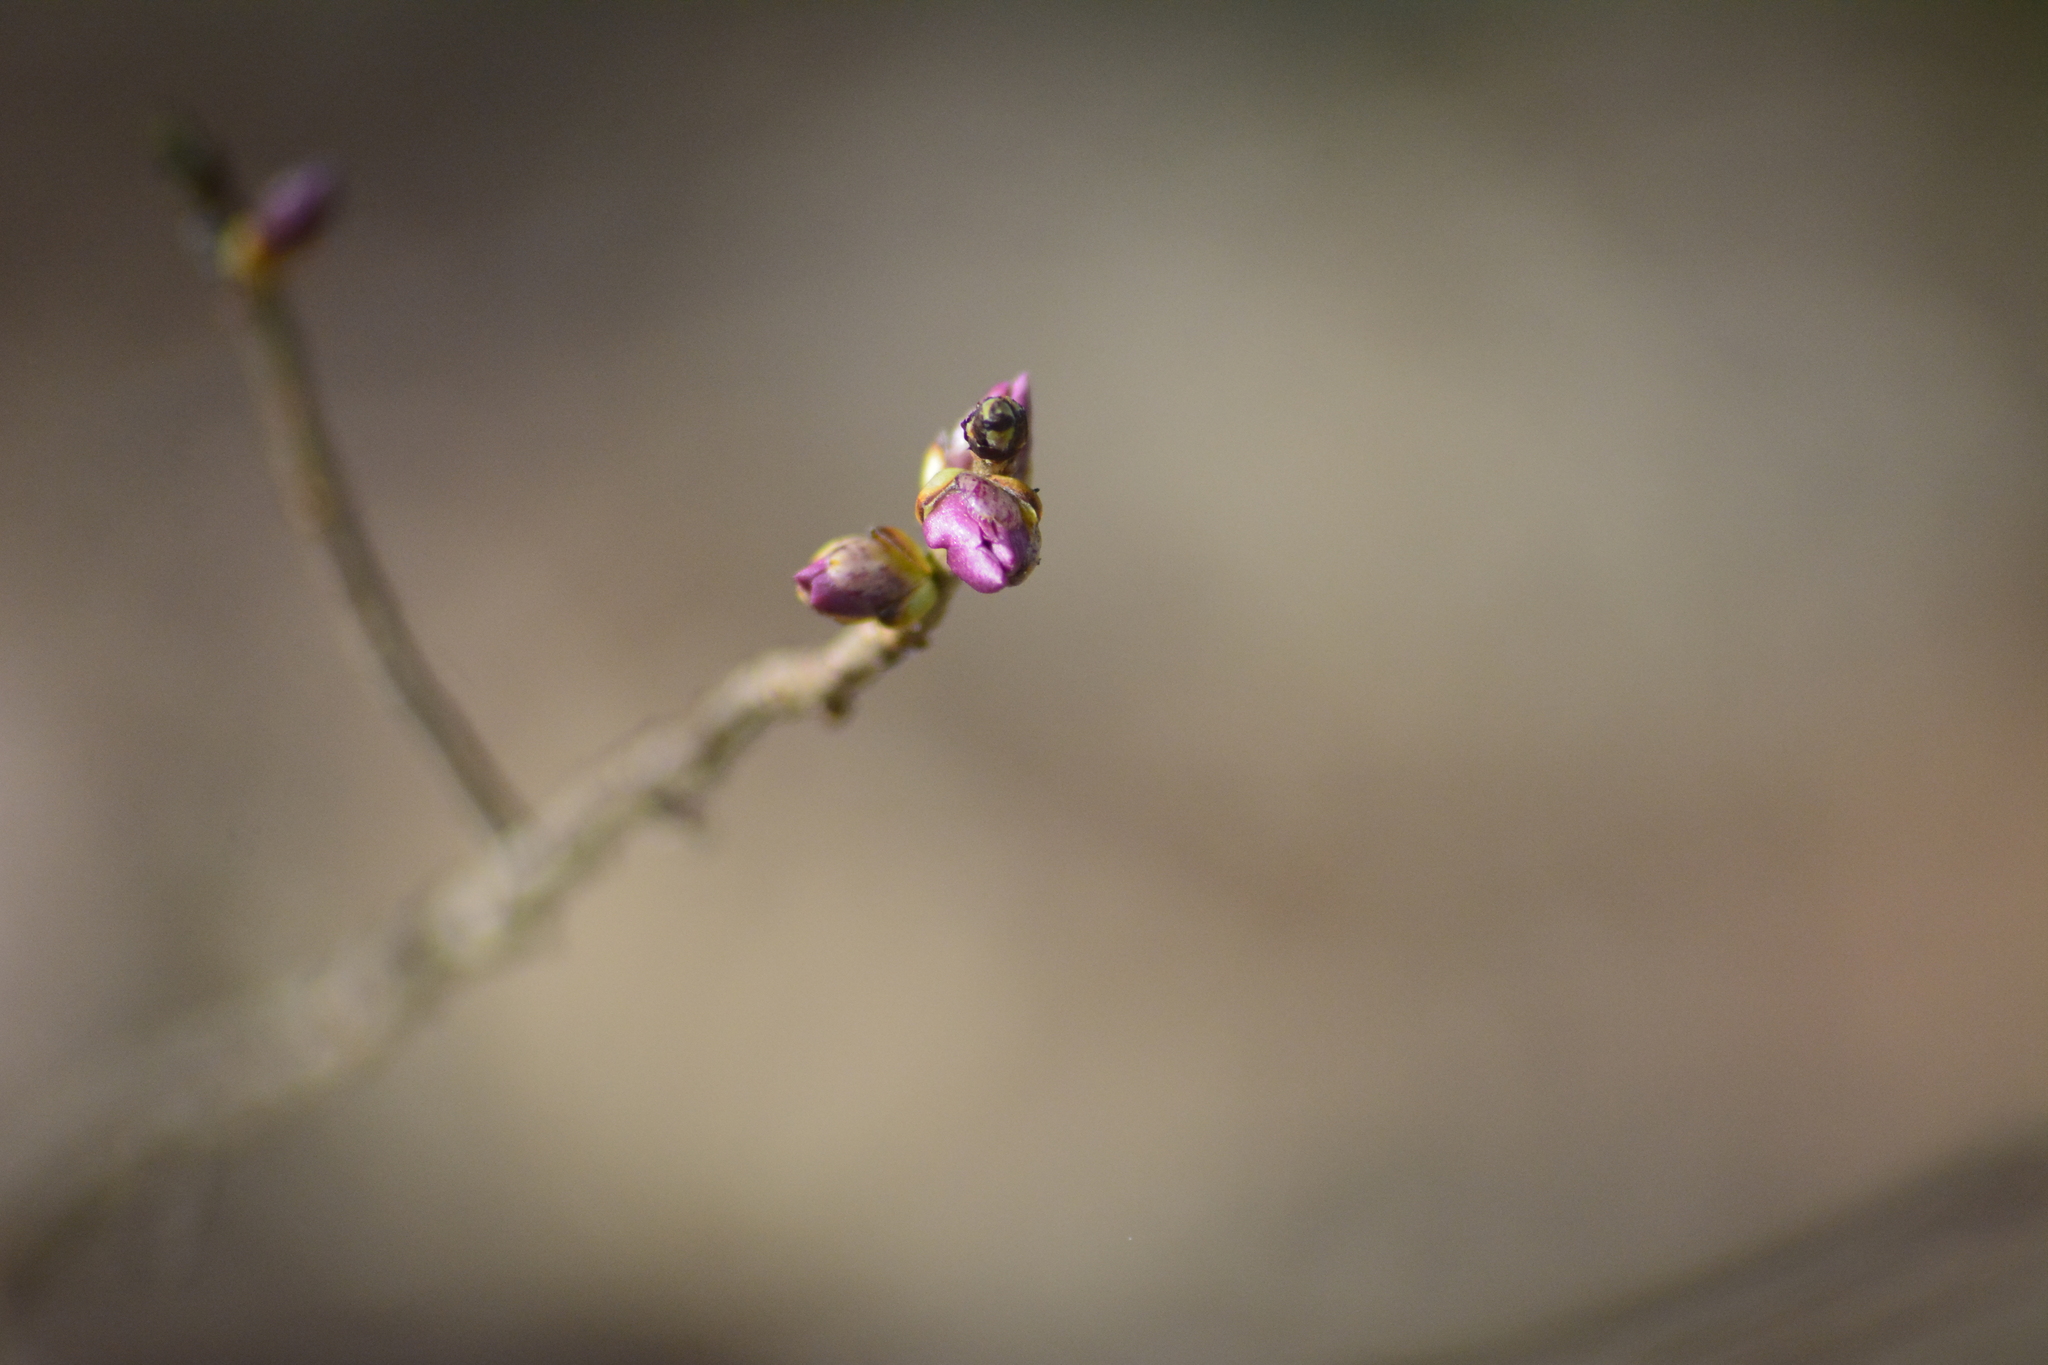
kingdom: Plantae
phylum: Tracheophyta
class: Magnoliopsida
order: Malvales
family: Thymelaeaceae
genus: Daphne
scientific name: Daphne mezereum
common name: Mezereon
